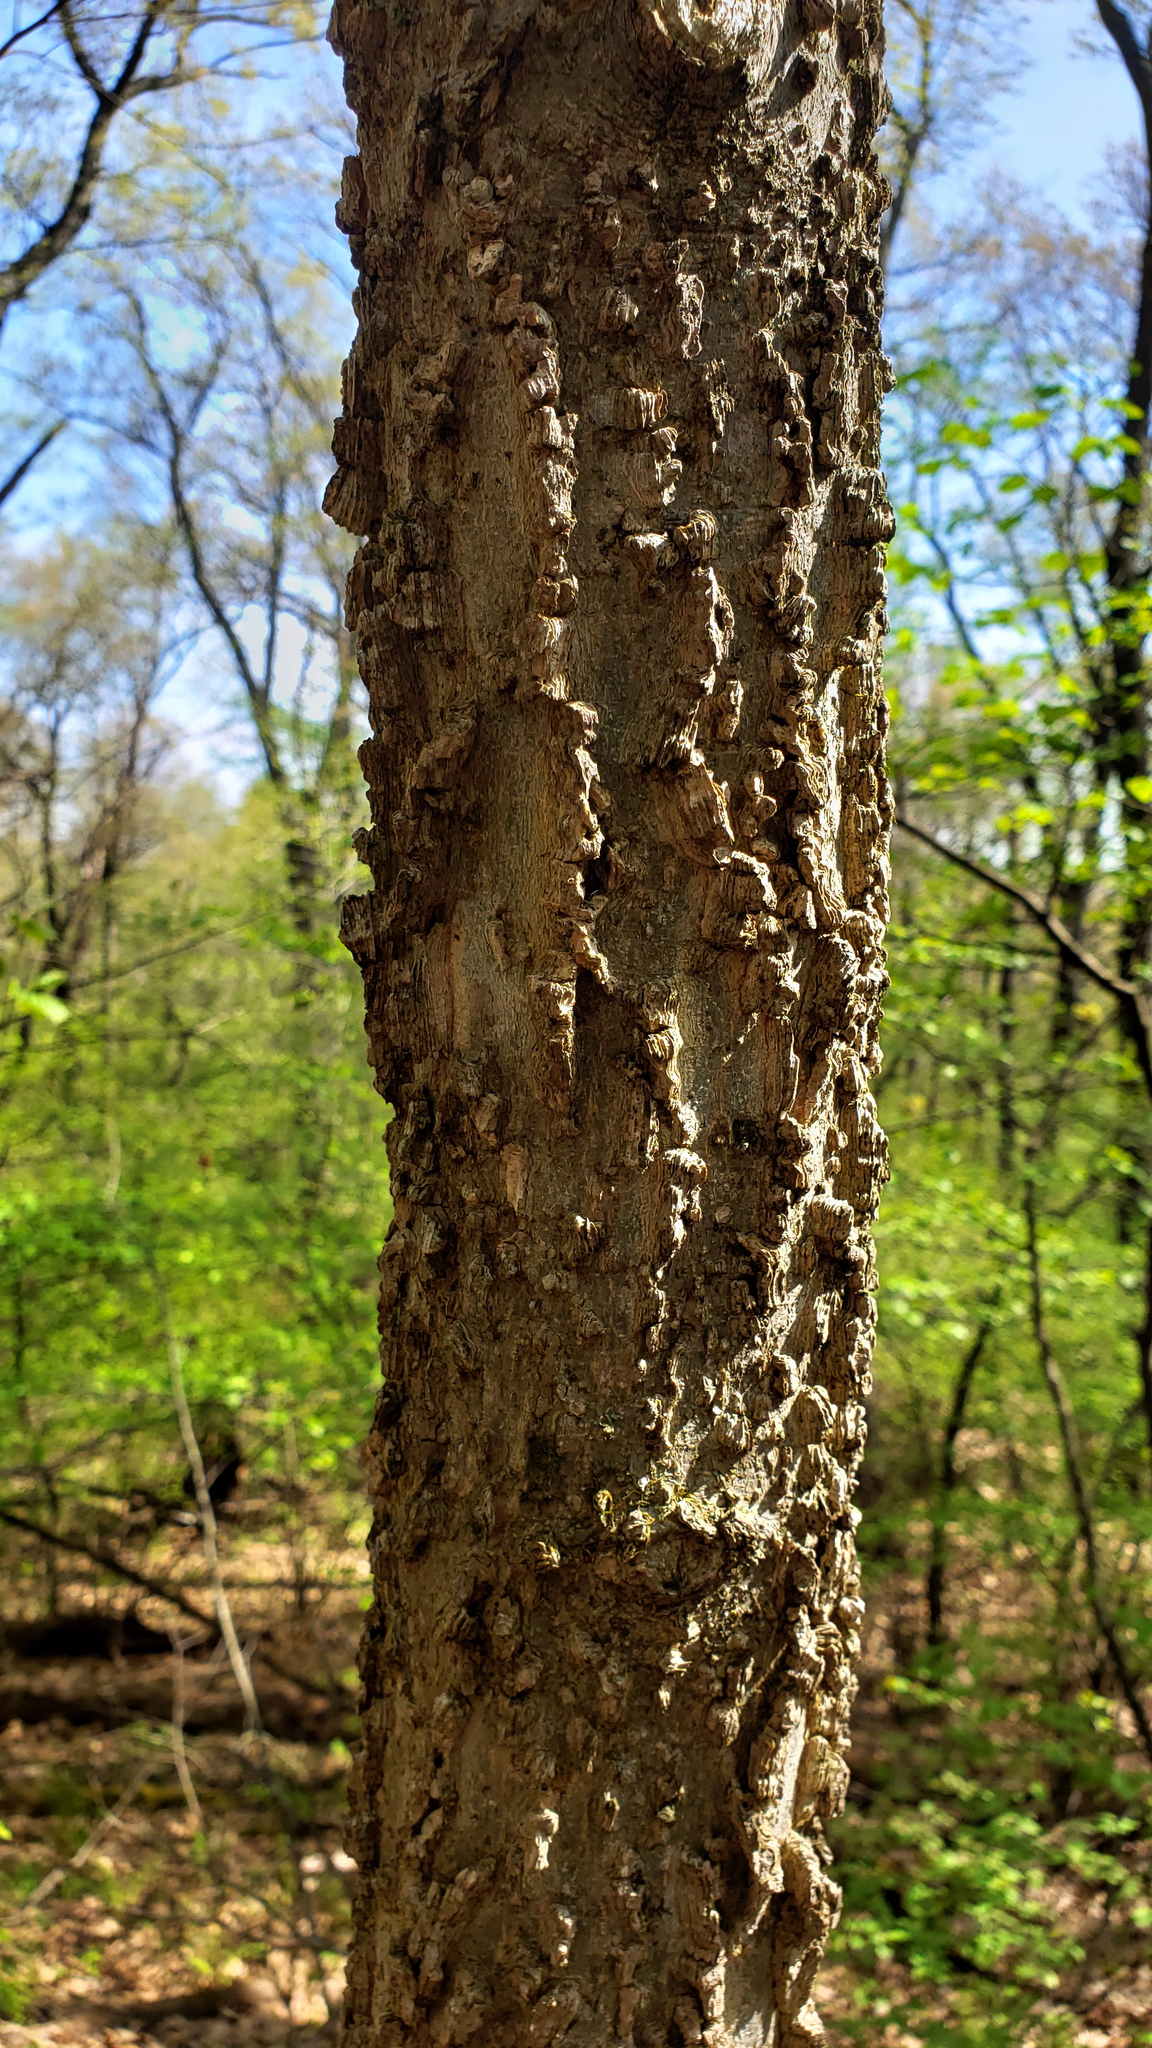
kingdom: Plantae
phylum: Tracheophyta
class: Magnoliopsida
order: Rosales
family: Cannabaceae
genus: Celtis
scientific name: Celtis occidentalis
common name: Common hackberry
